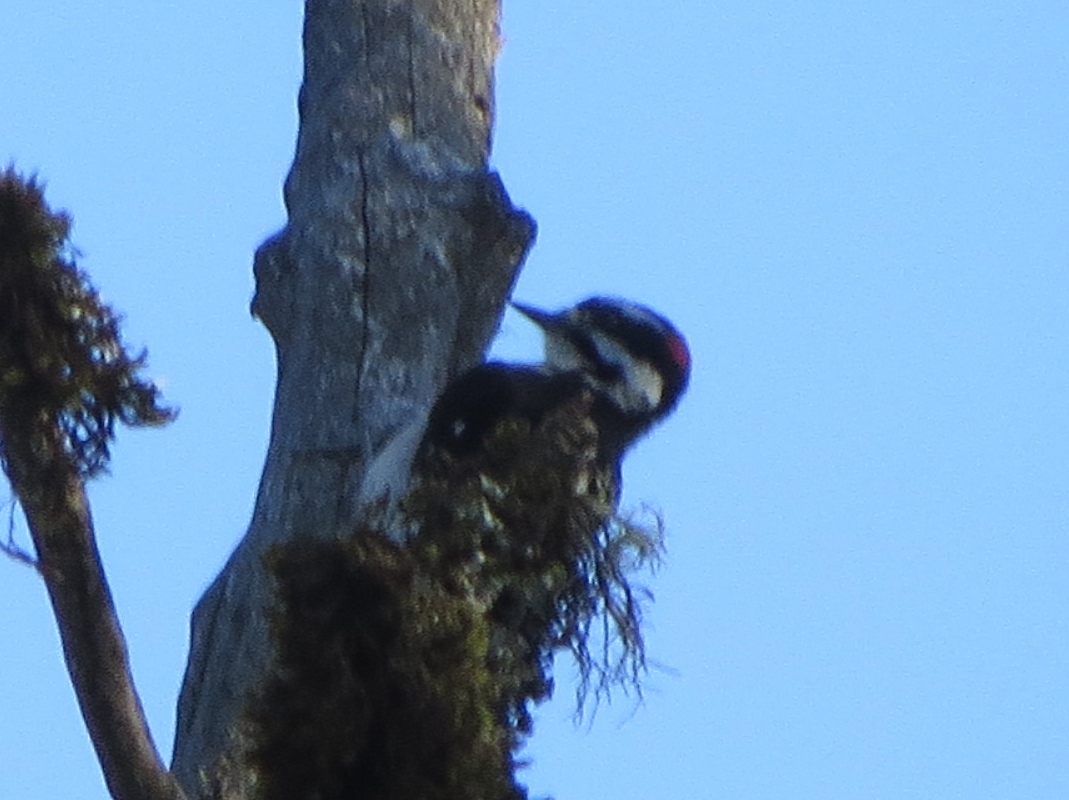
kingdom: Animalia
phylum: Chordata
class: Aves
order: Piciformes
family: Picidae
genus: Dryobates
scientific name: Dryobates pubescens
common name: Downy woodpecker
